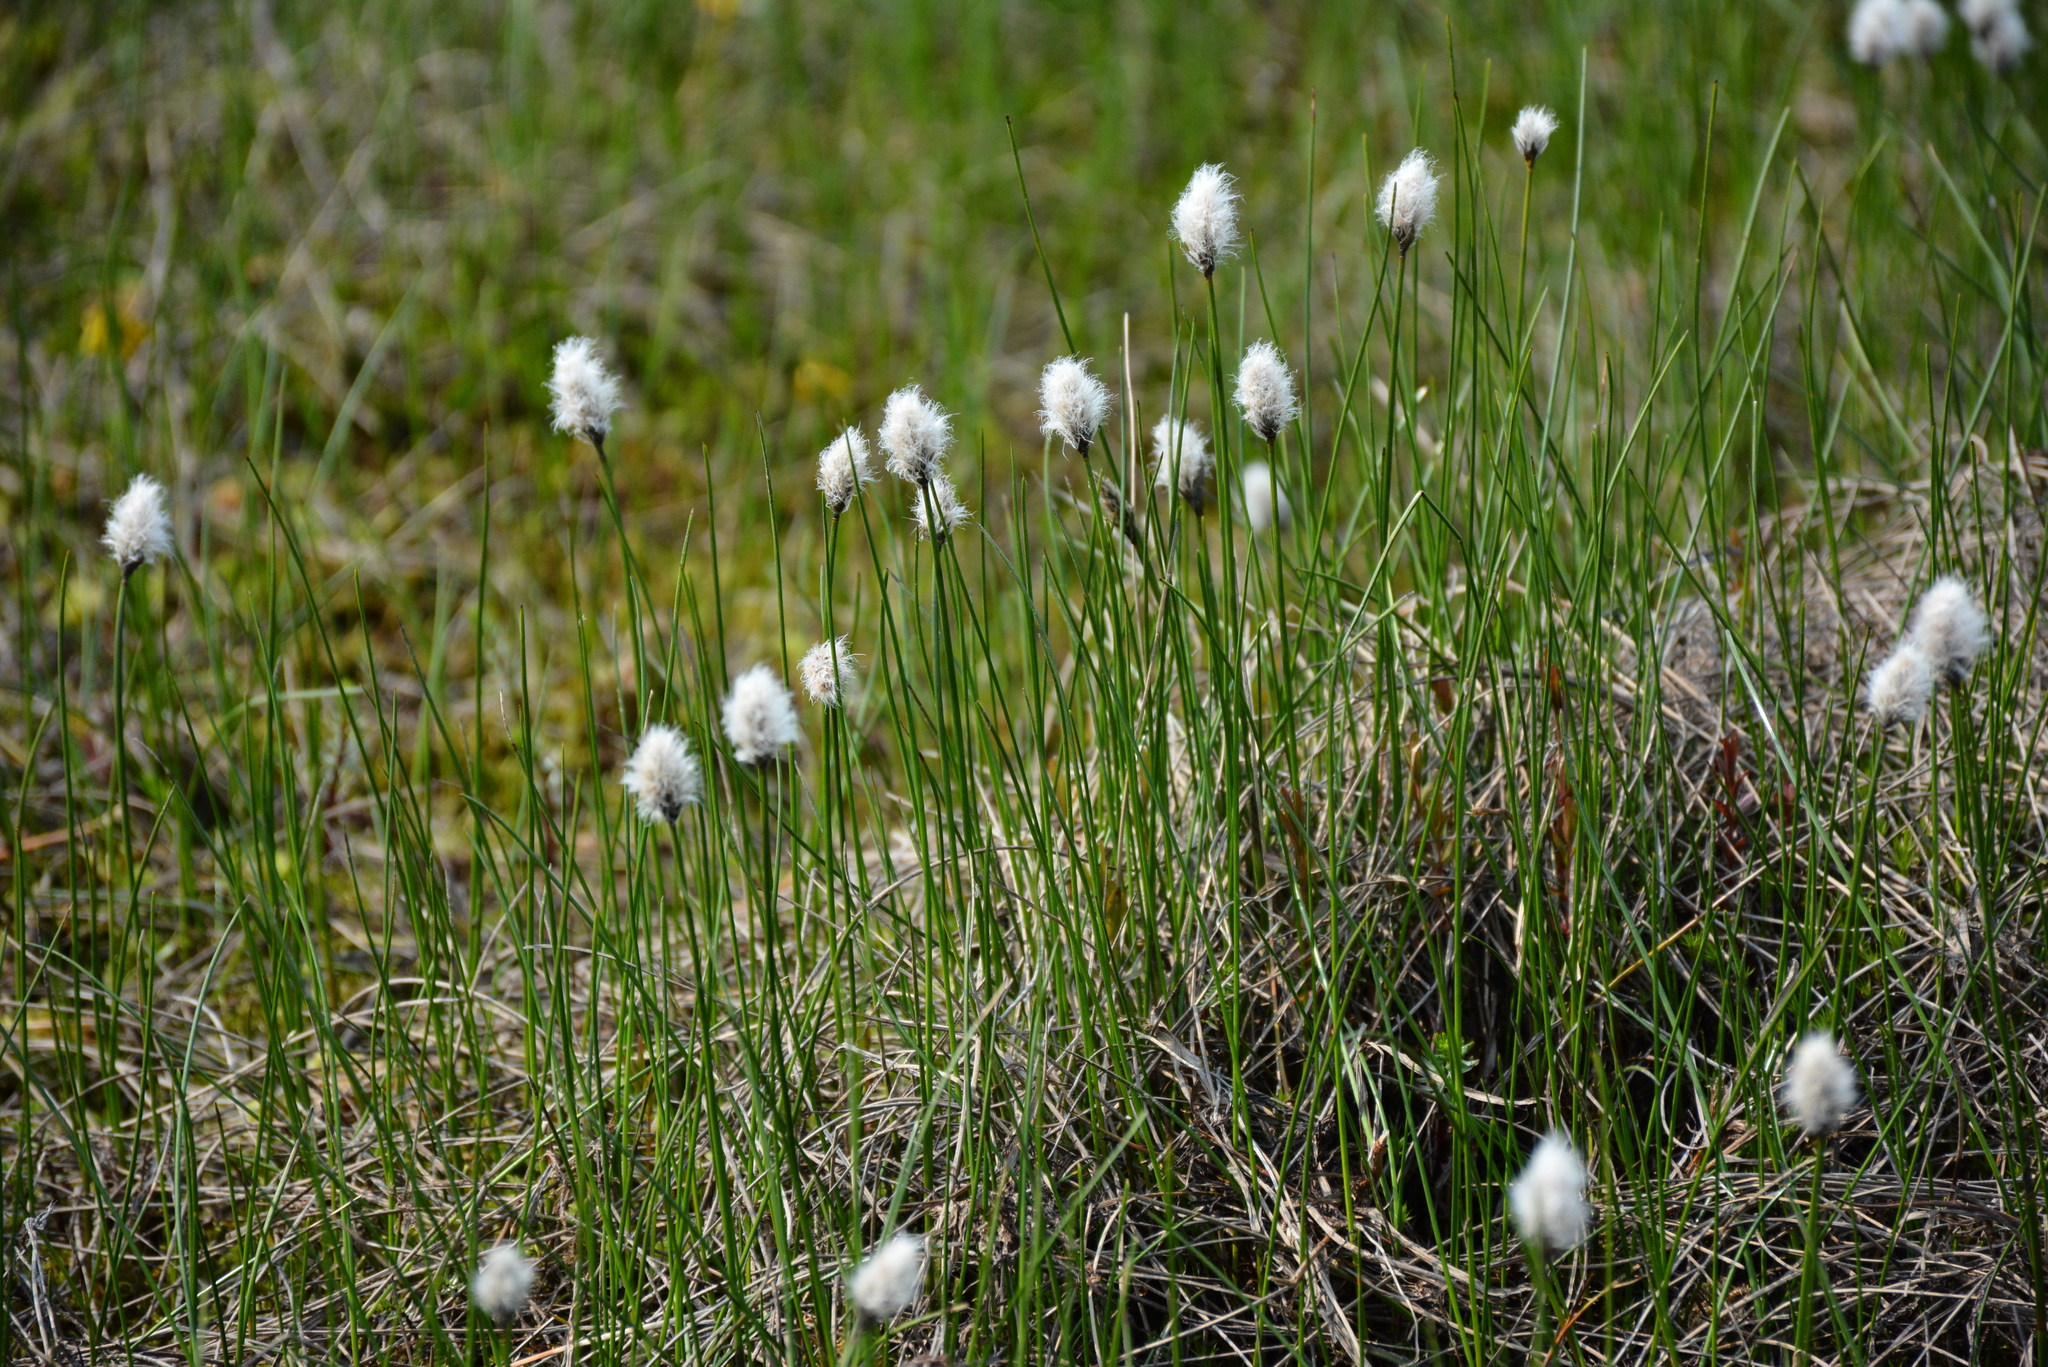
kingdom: Plantae
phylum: Tracheophyta
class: Liliopsida
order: Poales
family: Cyperaceae
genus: Eriophorum
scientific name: Eriophorum chamissonis
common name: Chamisso's cottongrass
